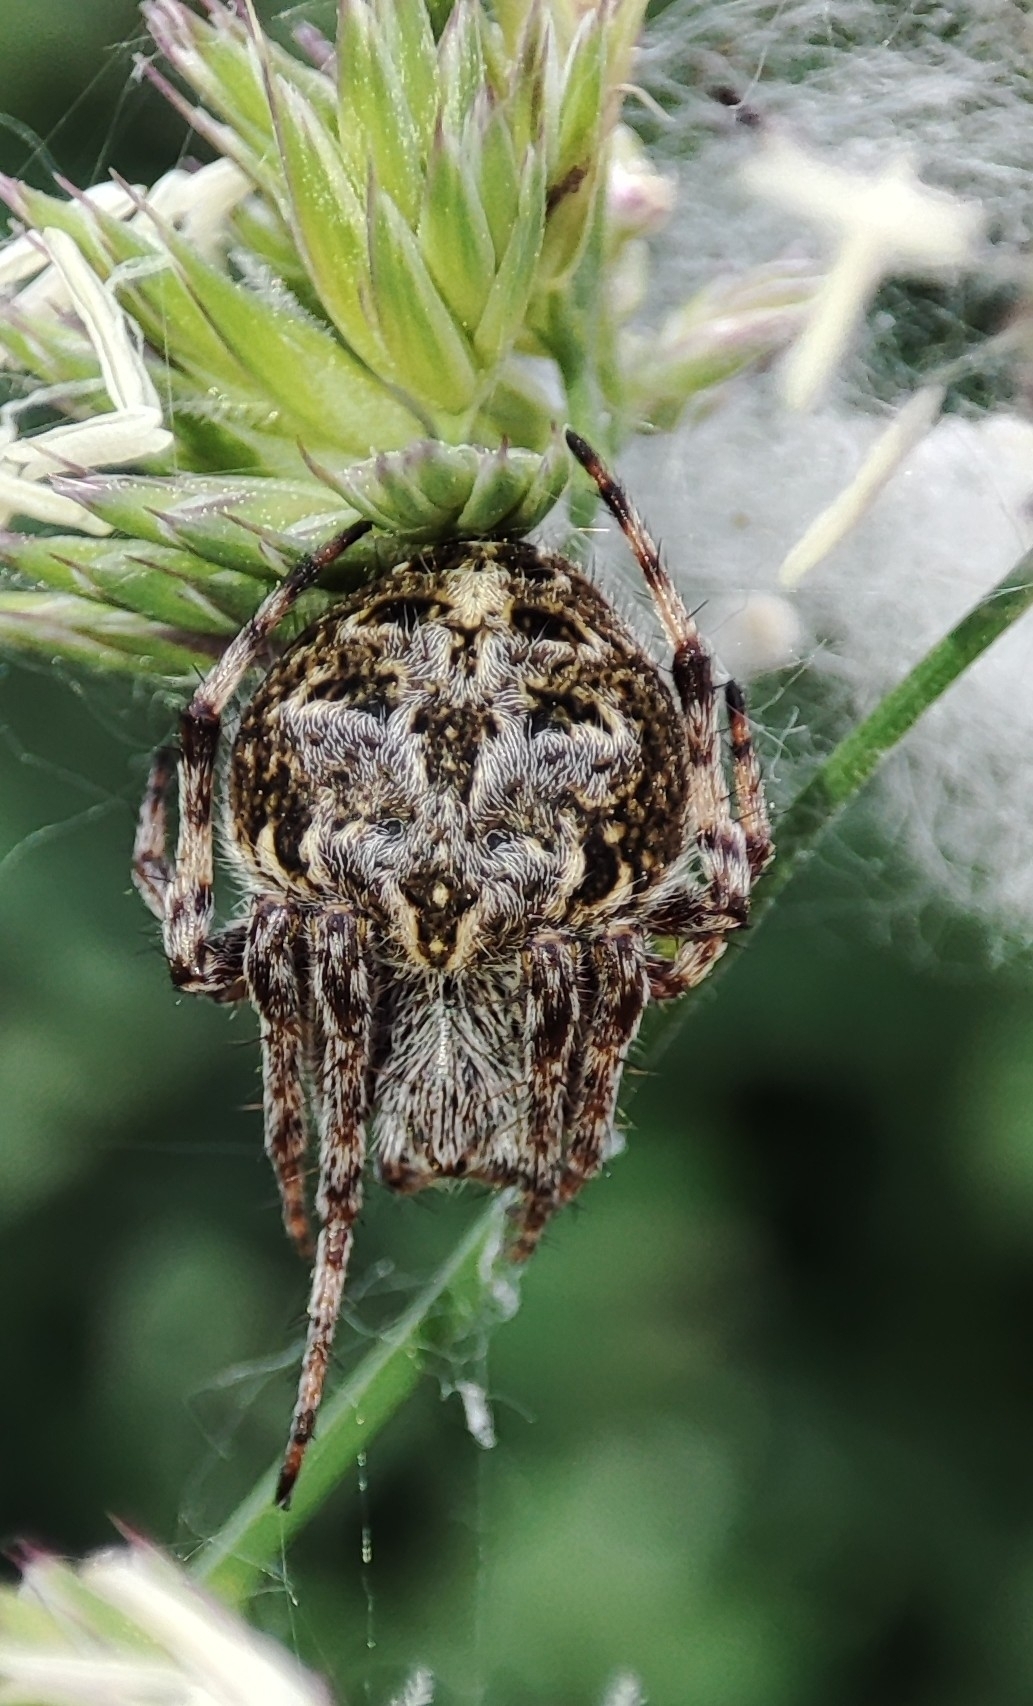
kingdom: Animalia
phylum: Arthropoda
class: Arachnida
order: Araneae
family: Araneidae
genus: Agalenatea
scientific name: Agalenatea redii
